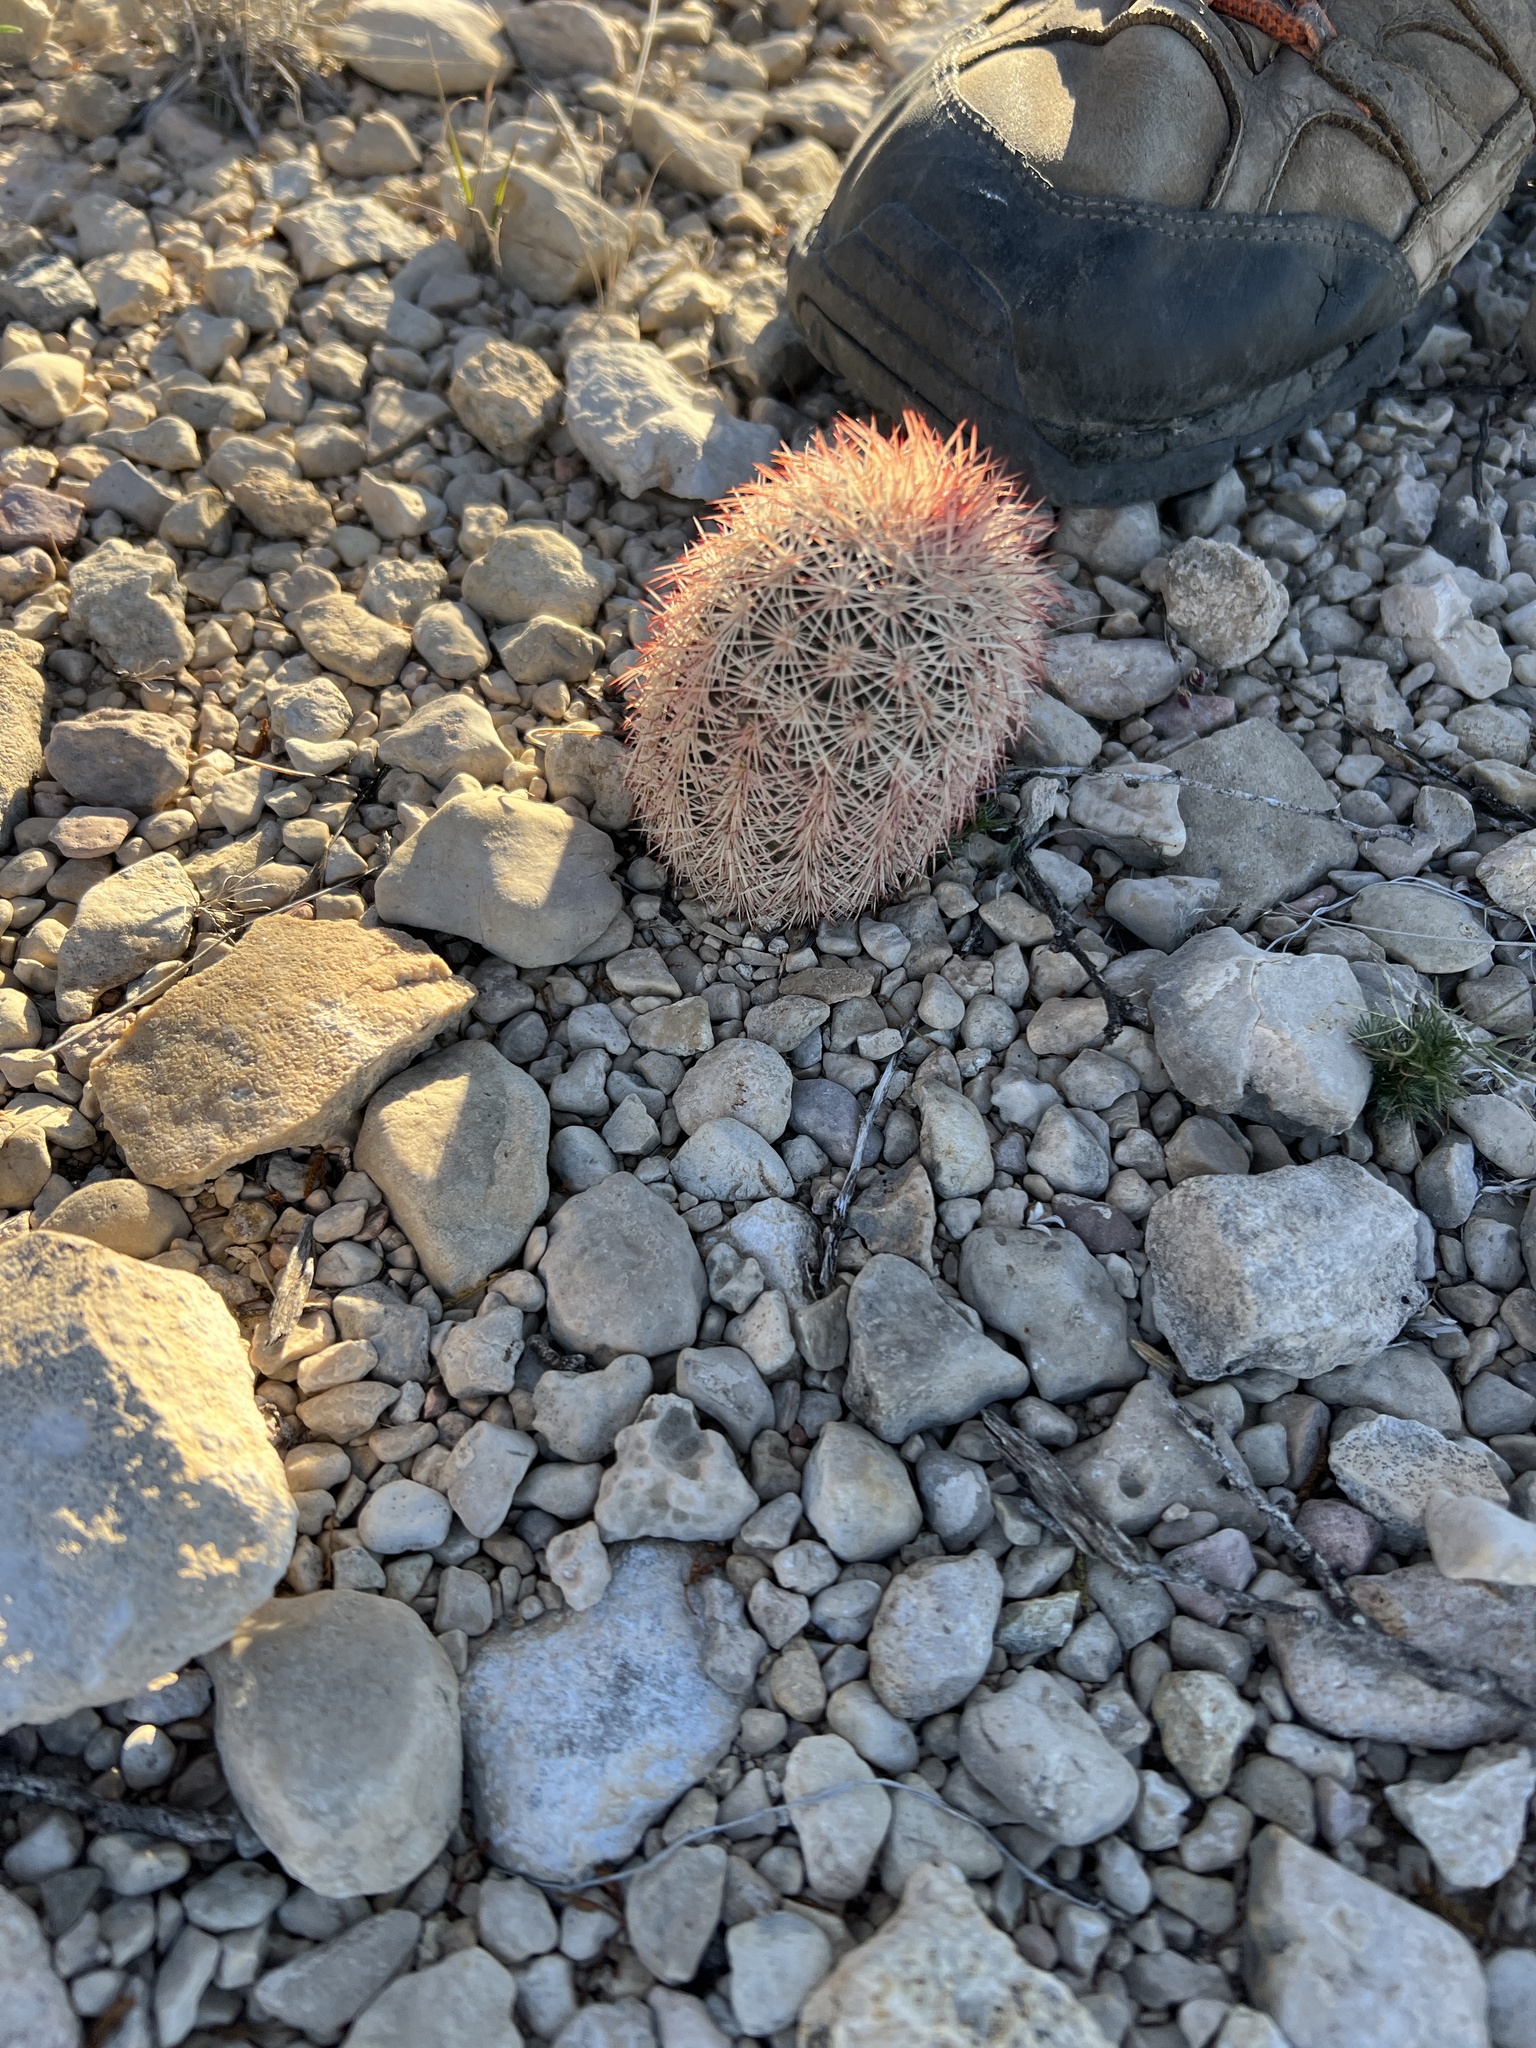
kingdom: Plantae
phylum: Tracheophyta
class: Magnoliopsida
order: Caryophyllales
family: Cactaceae
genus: Echinocereus
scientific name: Echinocereus dasyacanthus
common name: Spiny hedgehog cactus
